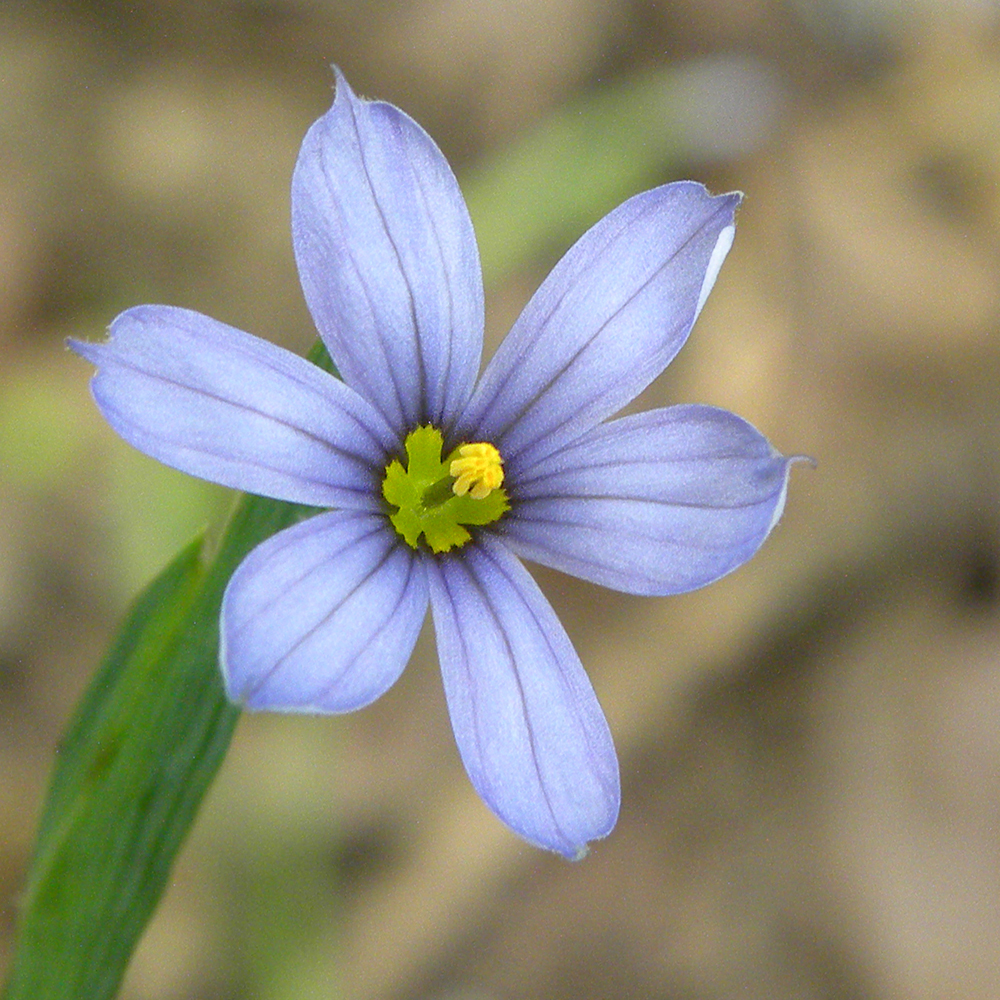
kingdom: Plantae
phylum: Tracheophyta
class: Liliopsida
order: Asparagales
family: Iridaceae
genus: Sisyrinchium
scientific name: Sisyrinchium angustifolium
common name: Narrow-leaf blue-eyed-grass
